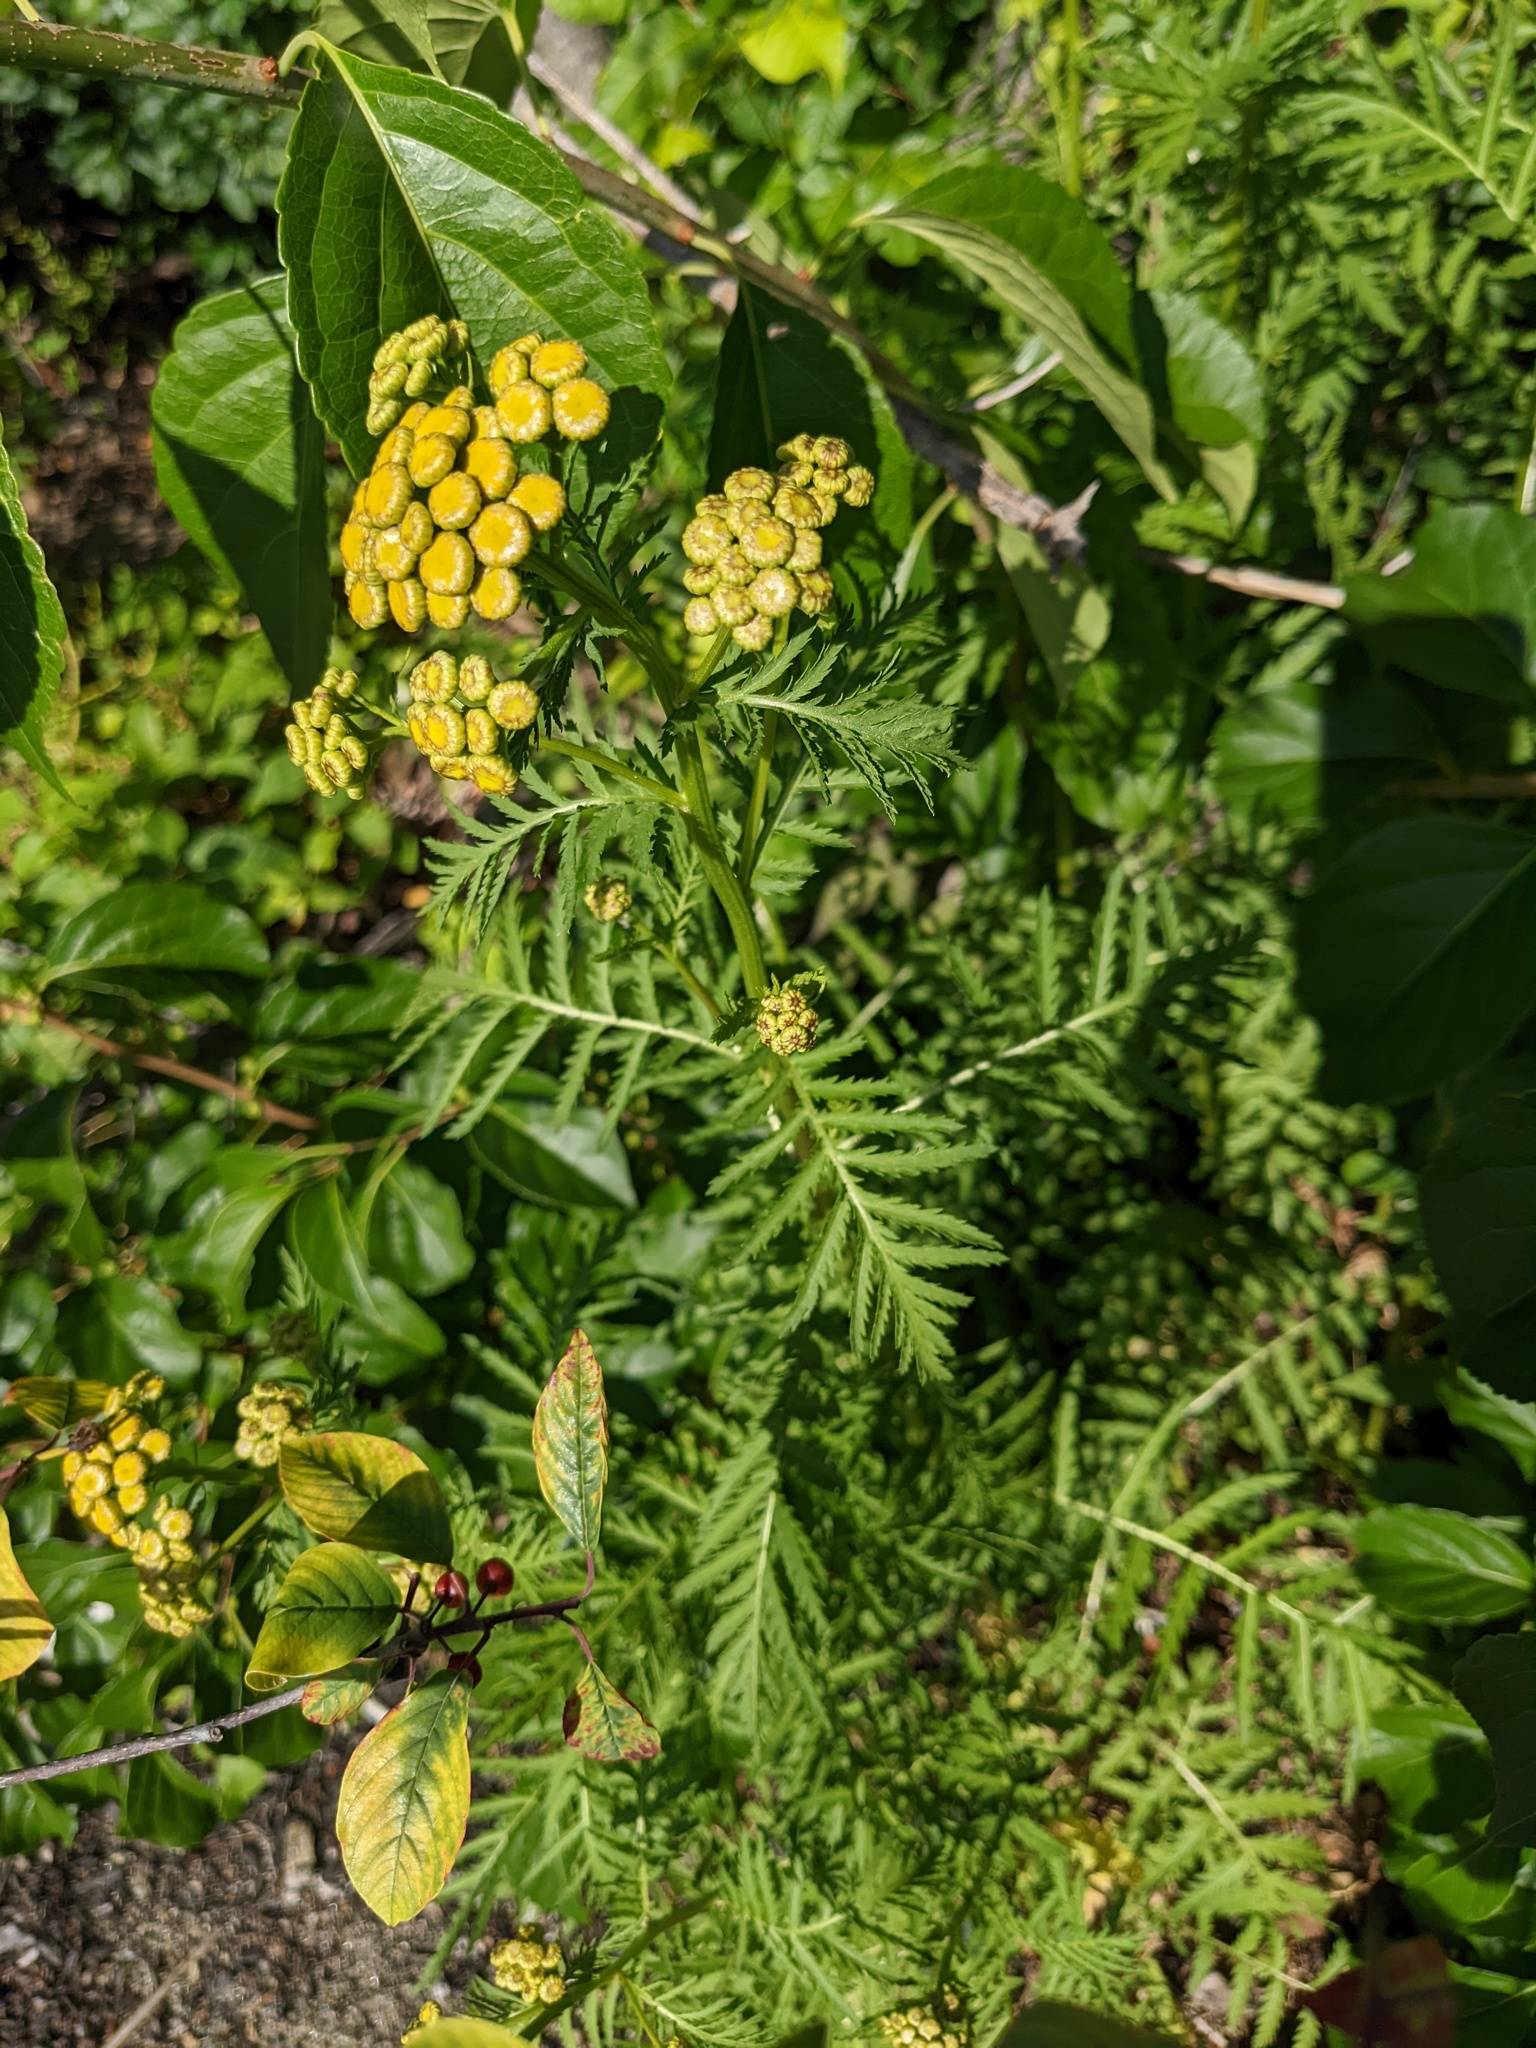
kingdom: Plantae
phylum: Tracheophyta
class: Magnoliopsida
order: Asterales
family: Asteraceae
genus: Tanacetum
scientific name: Tanacetum vulgare
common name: Common tansy
